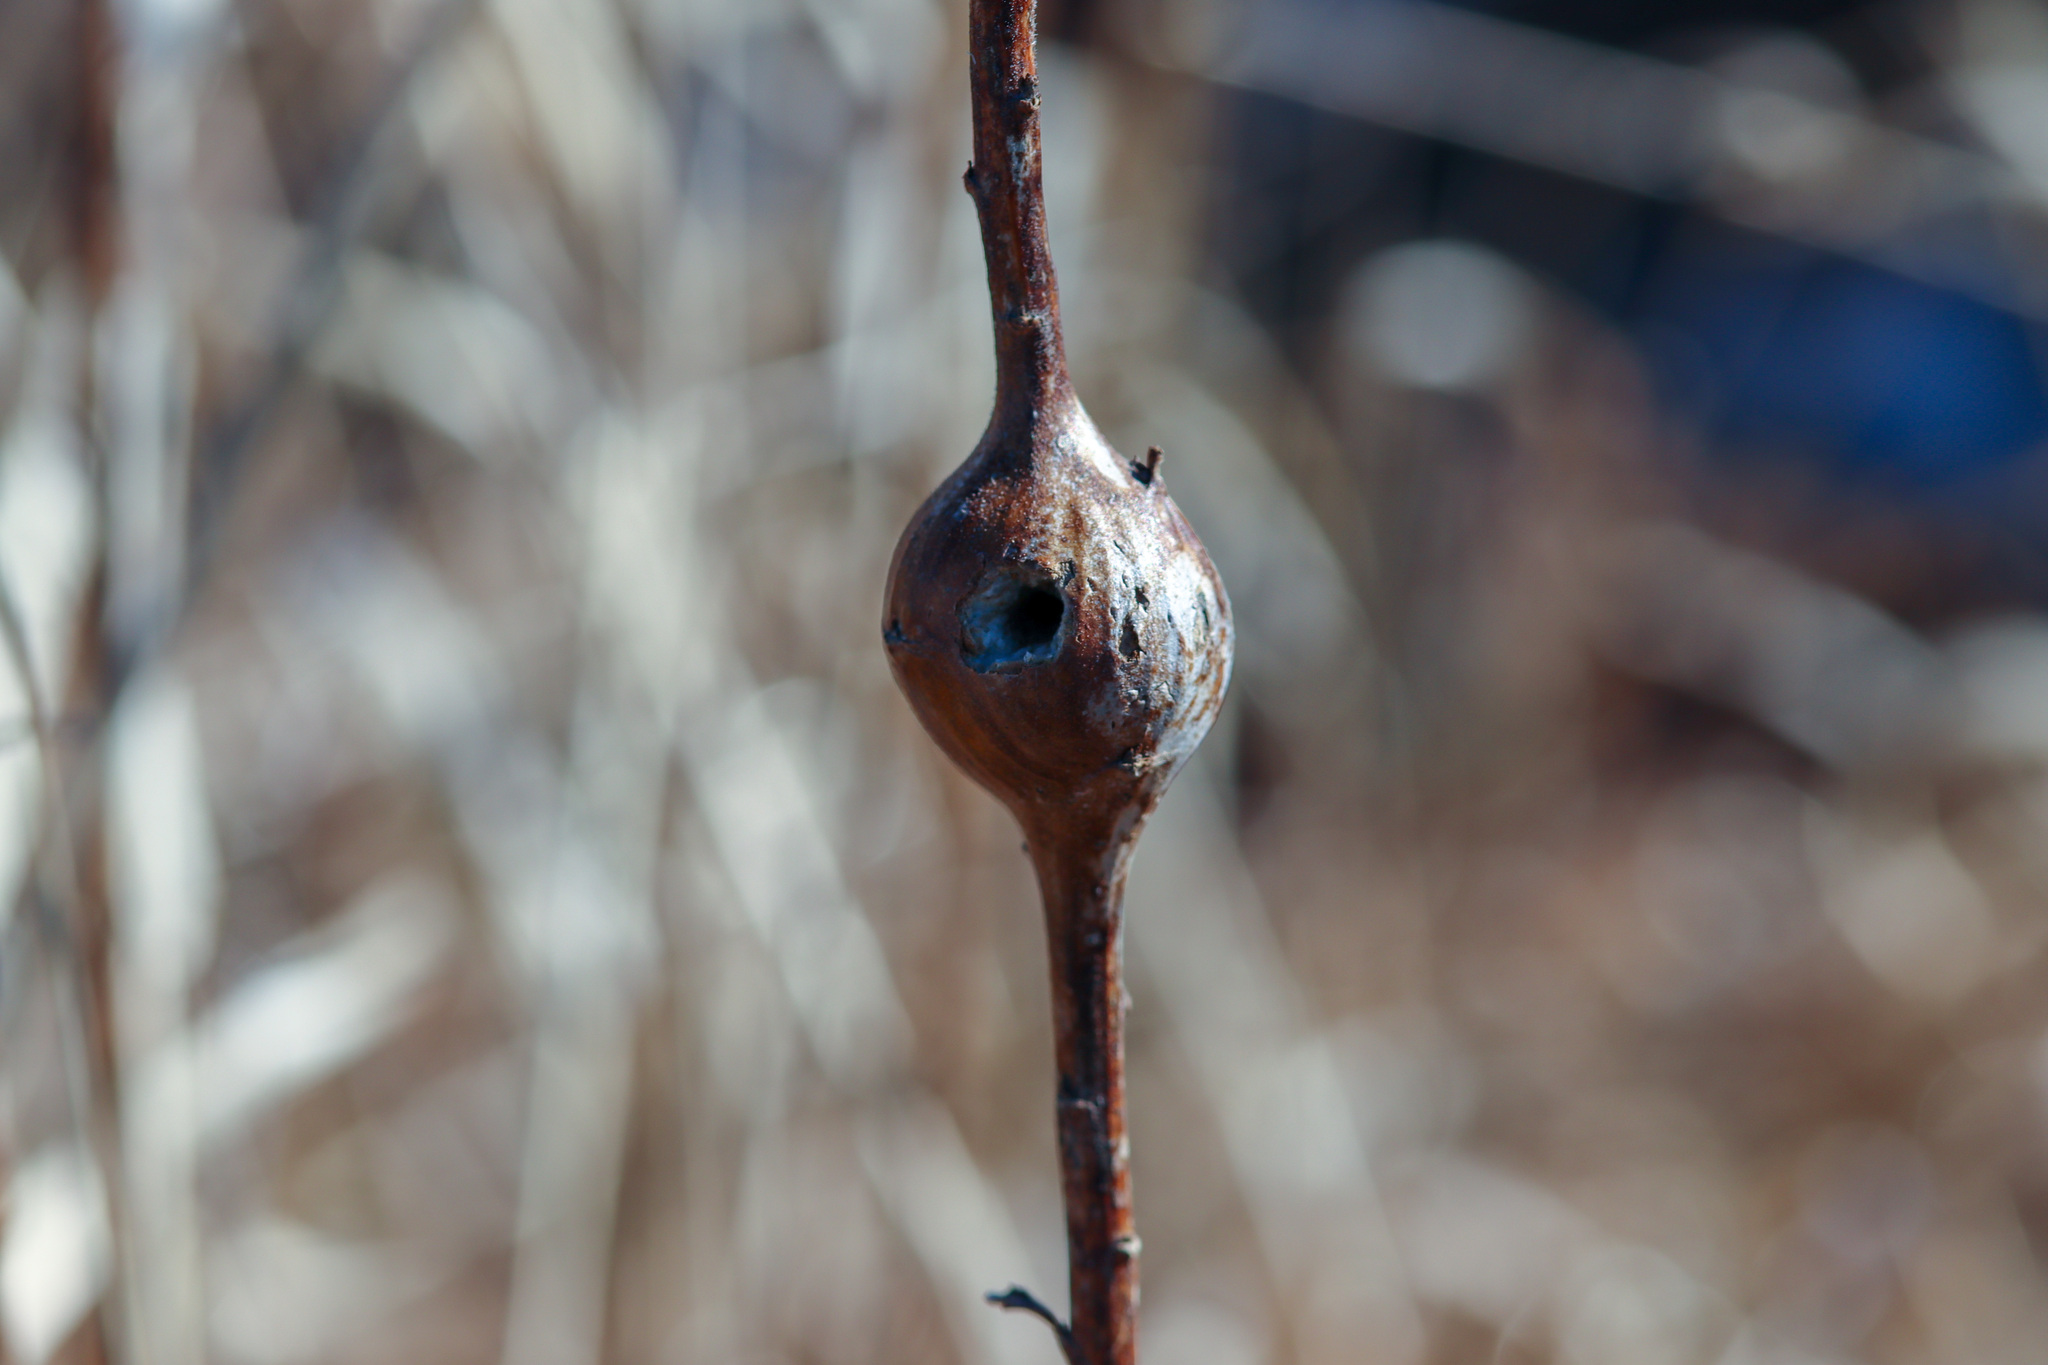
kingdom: Animalia
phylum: Arthropoda
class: Insecta
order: Diptera
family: Tephritidae
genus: Eurosta
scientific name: Eurosta solidaginis
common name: Goldenrod gall fly
